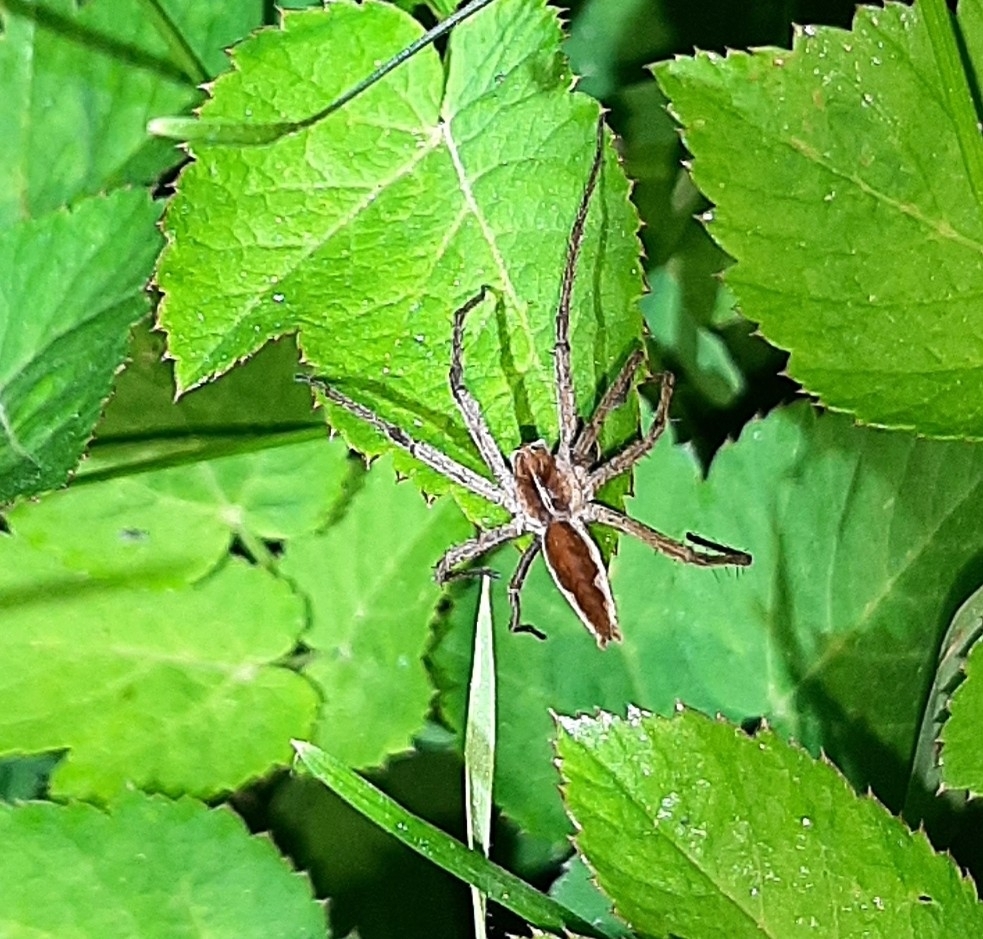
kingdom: Animalia
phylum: Arthropoda
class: Arachnida
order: Araneae
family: Pisauridae
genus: Pisaura
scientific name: Pisaura mirabilis
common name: Tent spider
